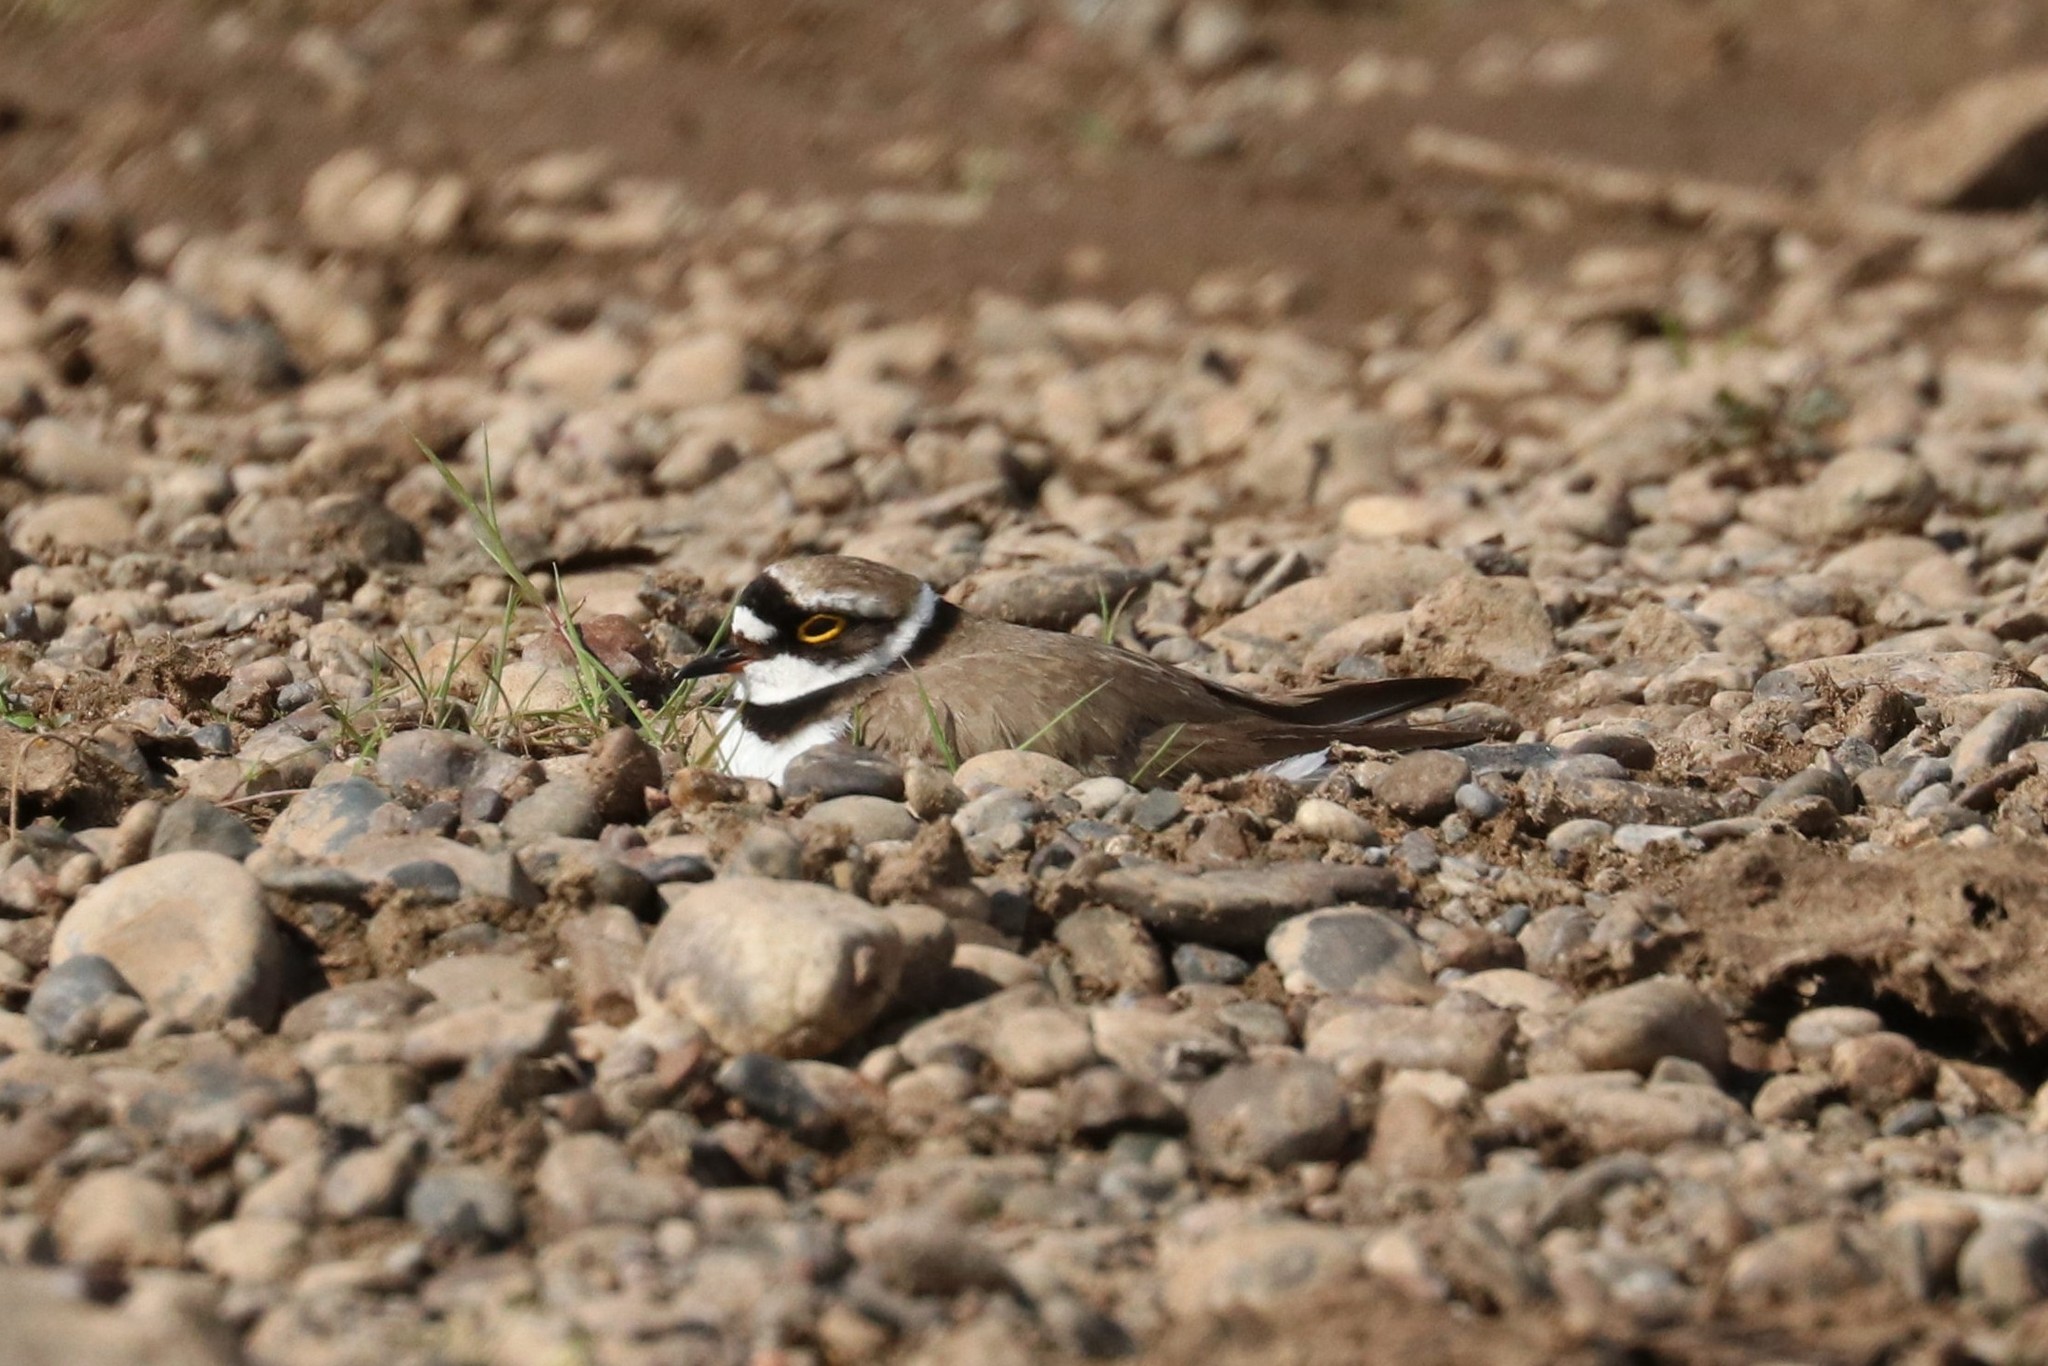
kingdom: Animalia
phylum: Chordata
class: Aves
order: Charadriiformes
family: Charadriidae
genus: Charadrius
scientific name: Charadrius dubius
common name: Little ringed plover
